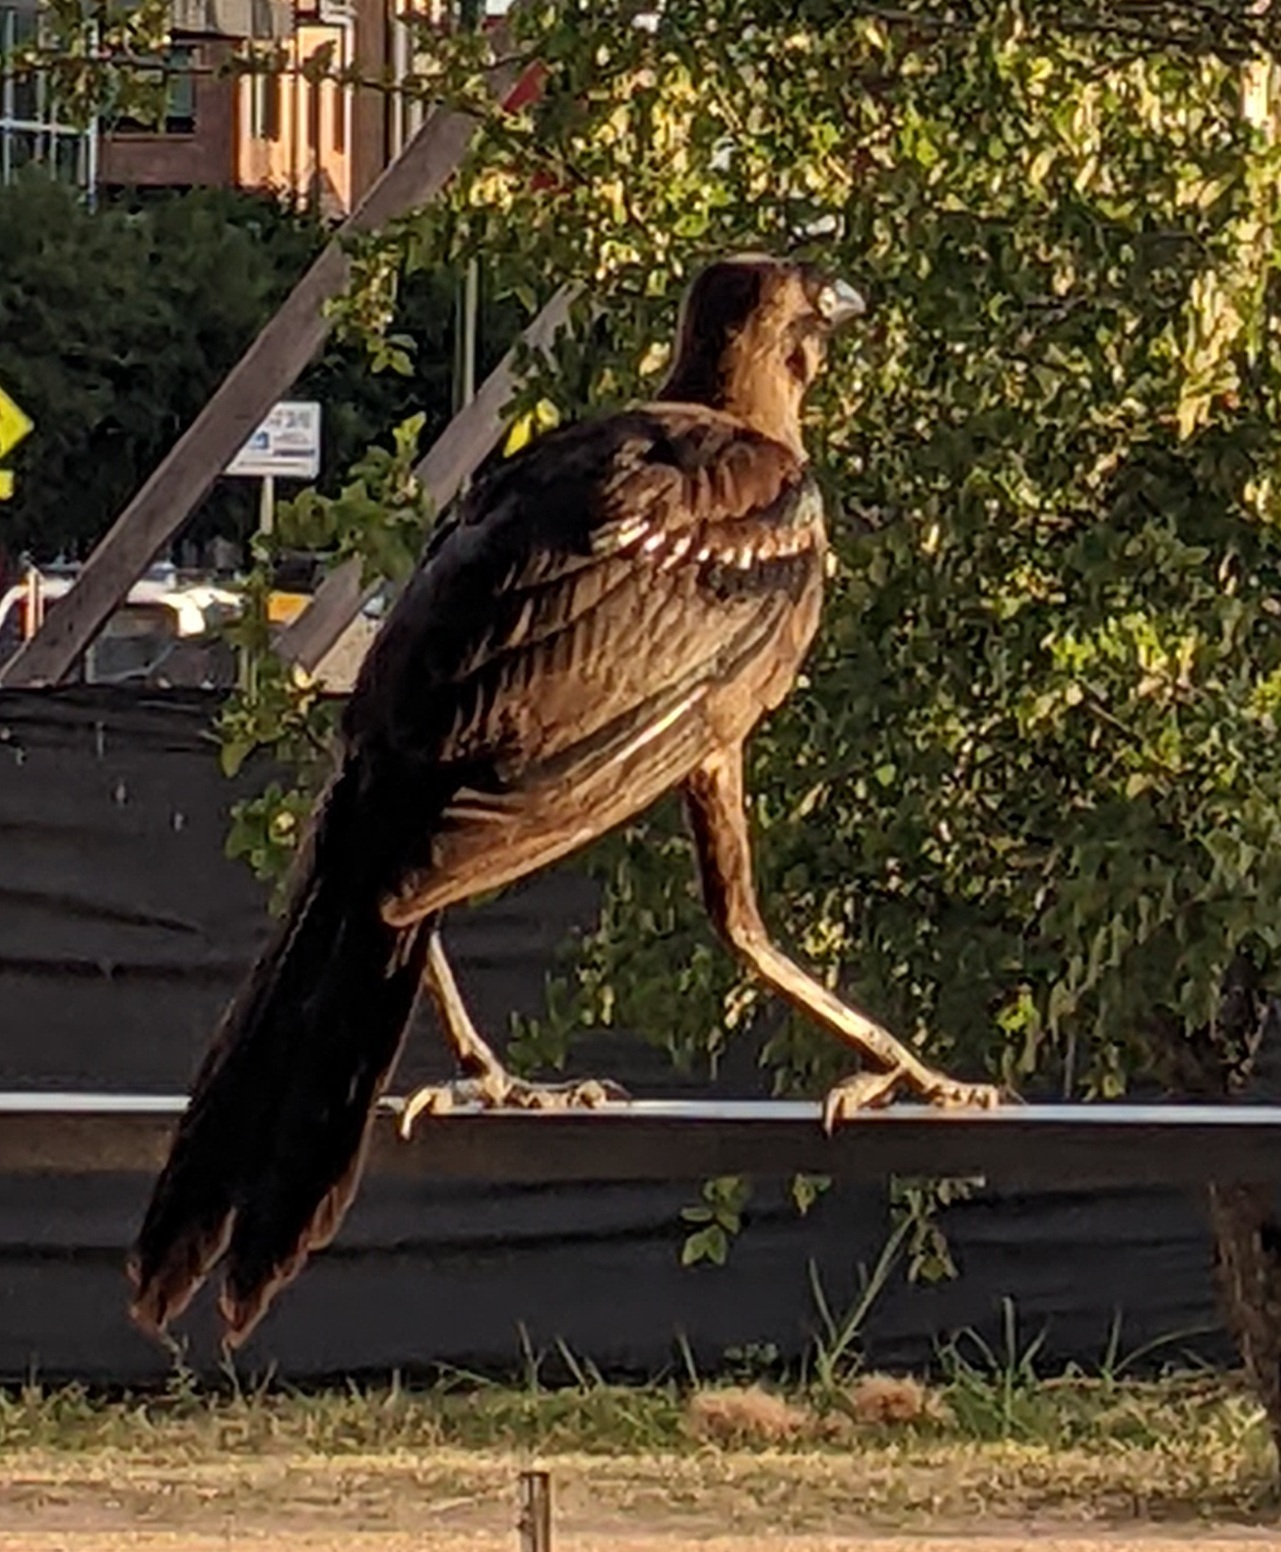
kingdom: Animalia
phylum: Chordata
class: Aves
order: Passeriformes
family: Icteridae
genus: Quiscalus
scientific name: Quiscalus mexicanus
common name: Great-tailed grackle
